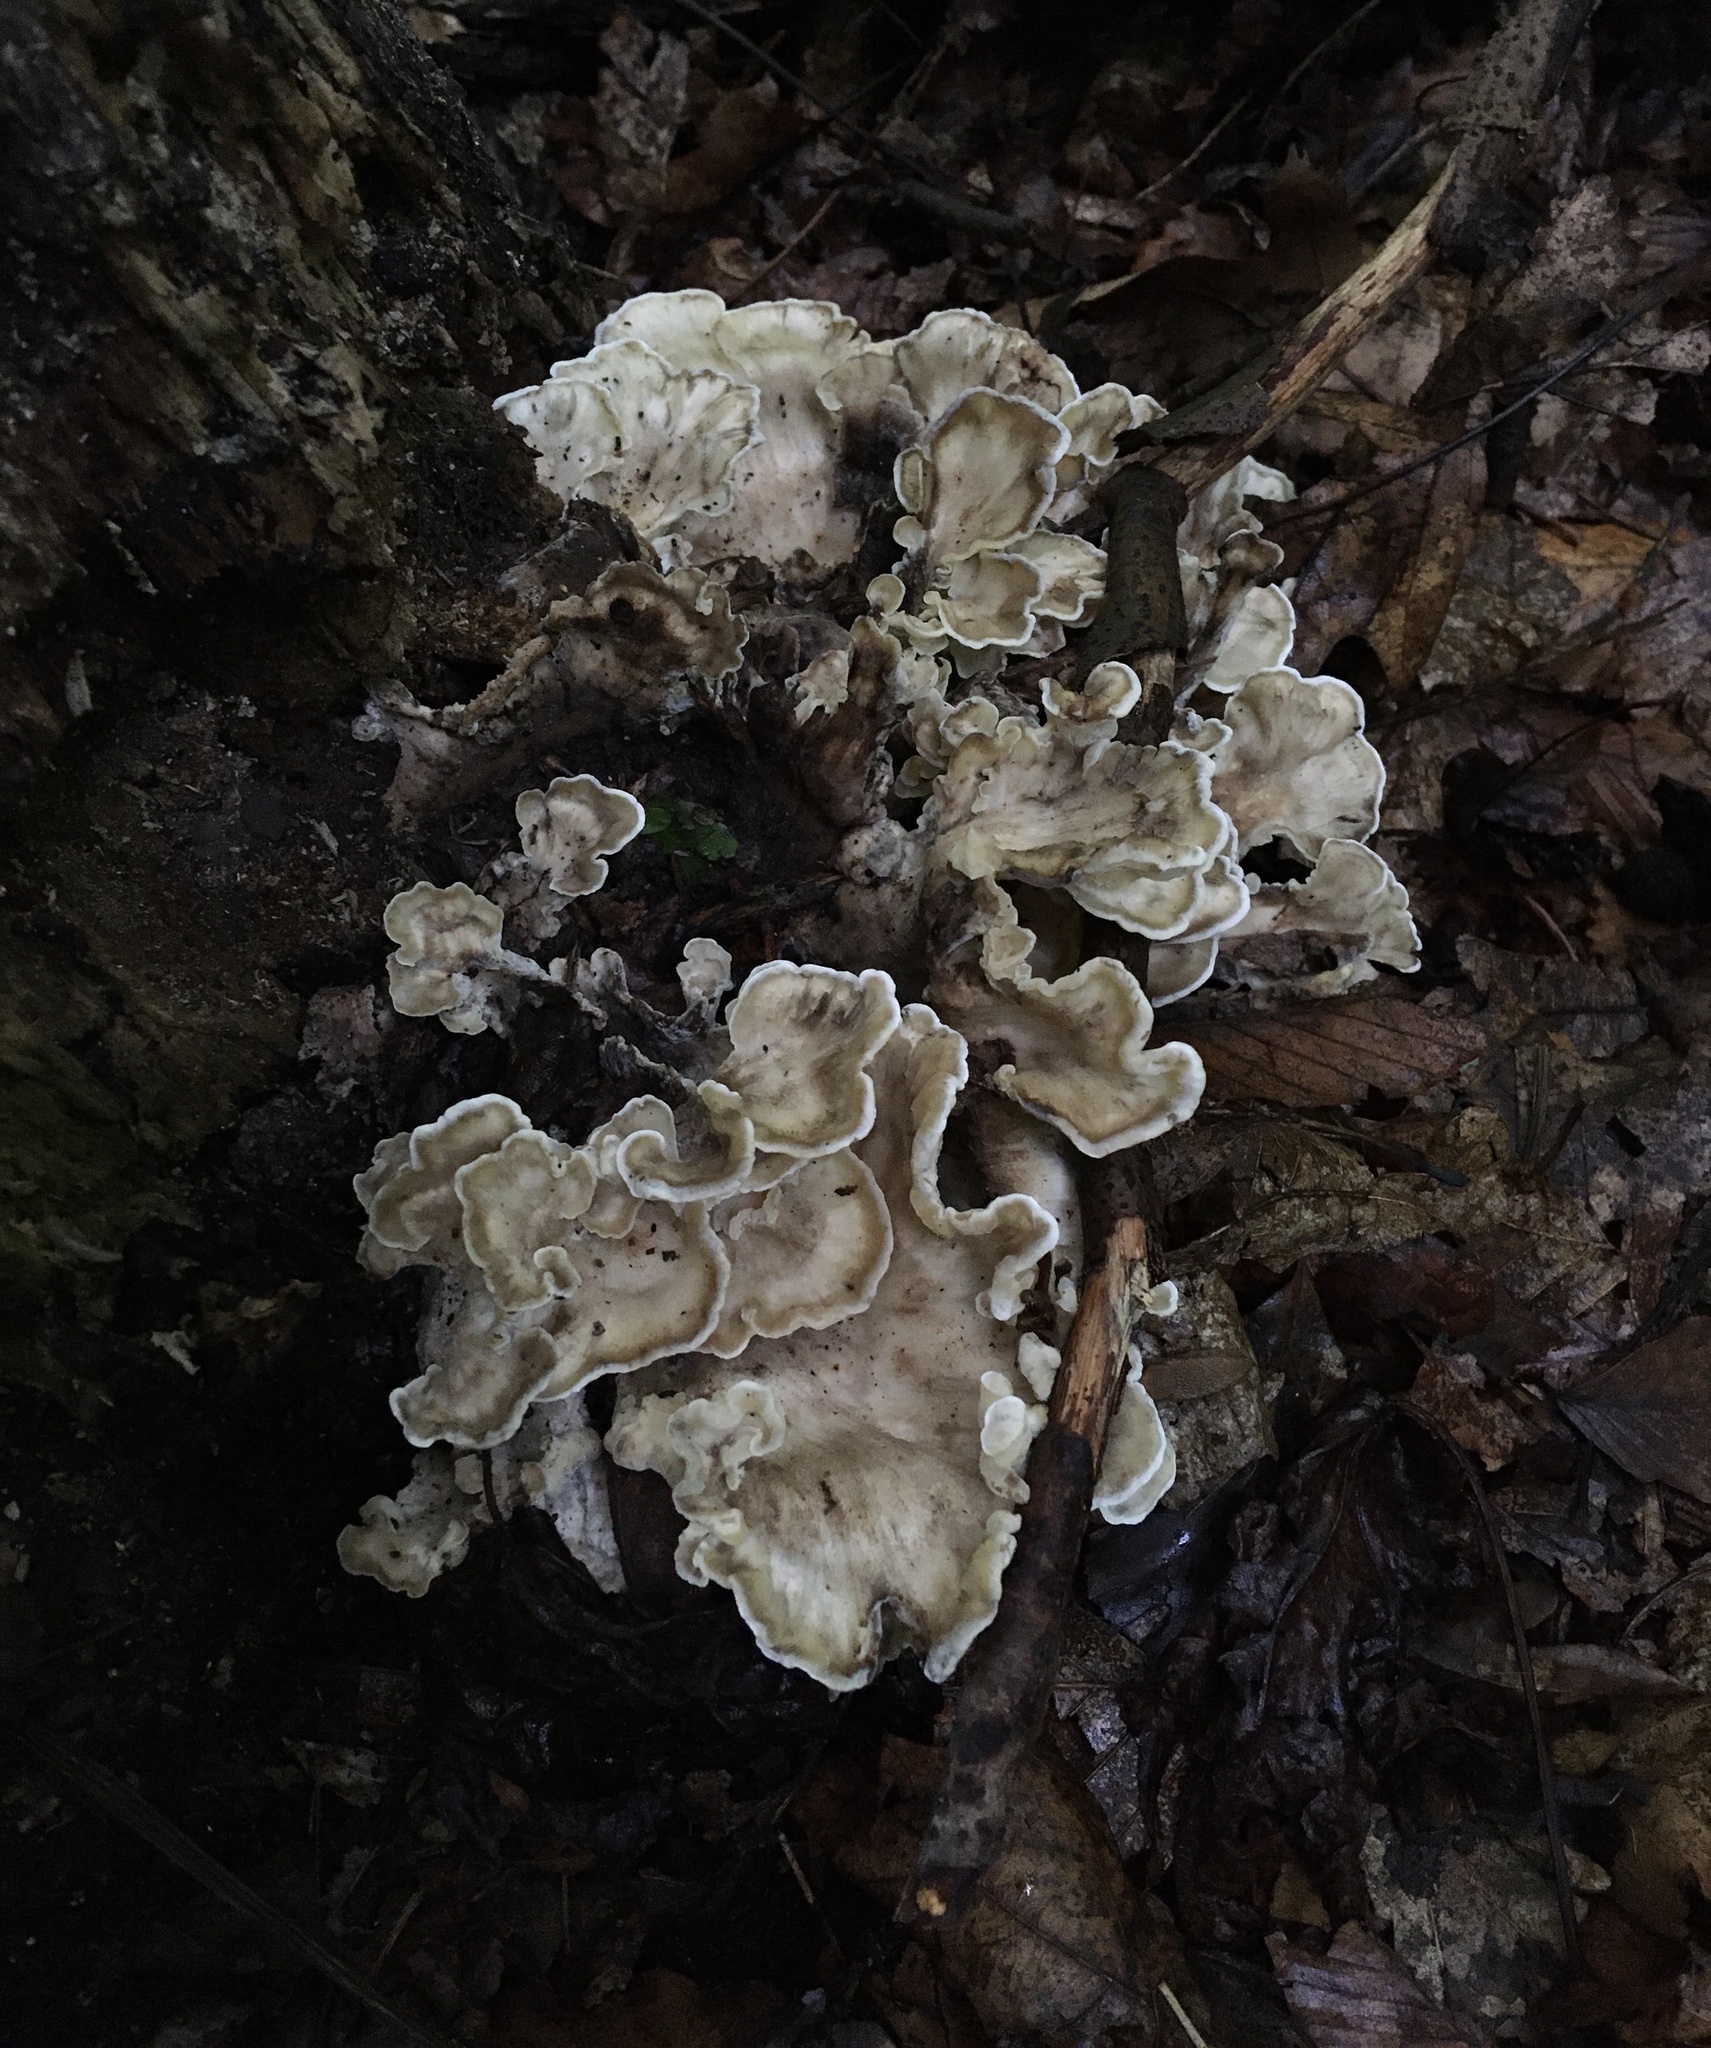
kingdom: Fungi
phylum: Basidiomycota
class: Agaricomycetes
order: Polyporales
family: Meripilaceae
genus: Meripilus
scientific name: Meripilus sumstinei
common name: Black-staining polypore
